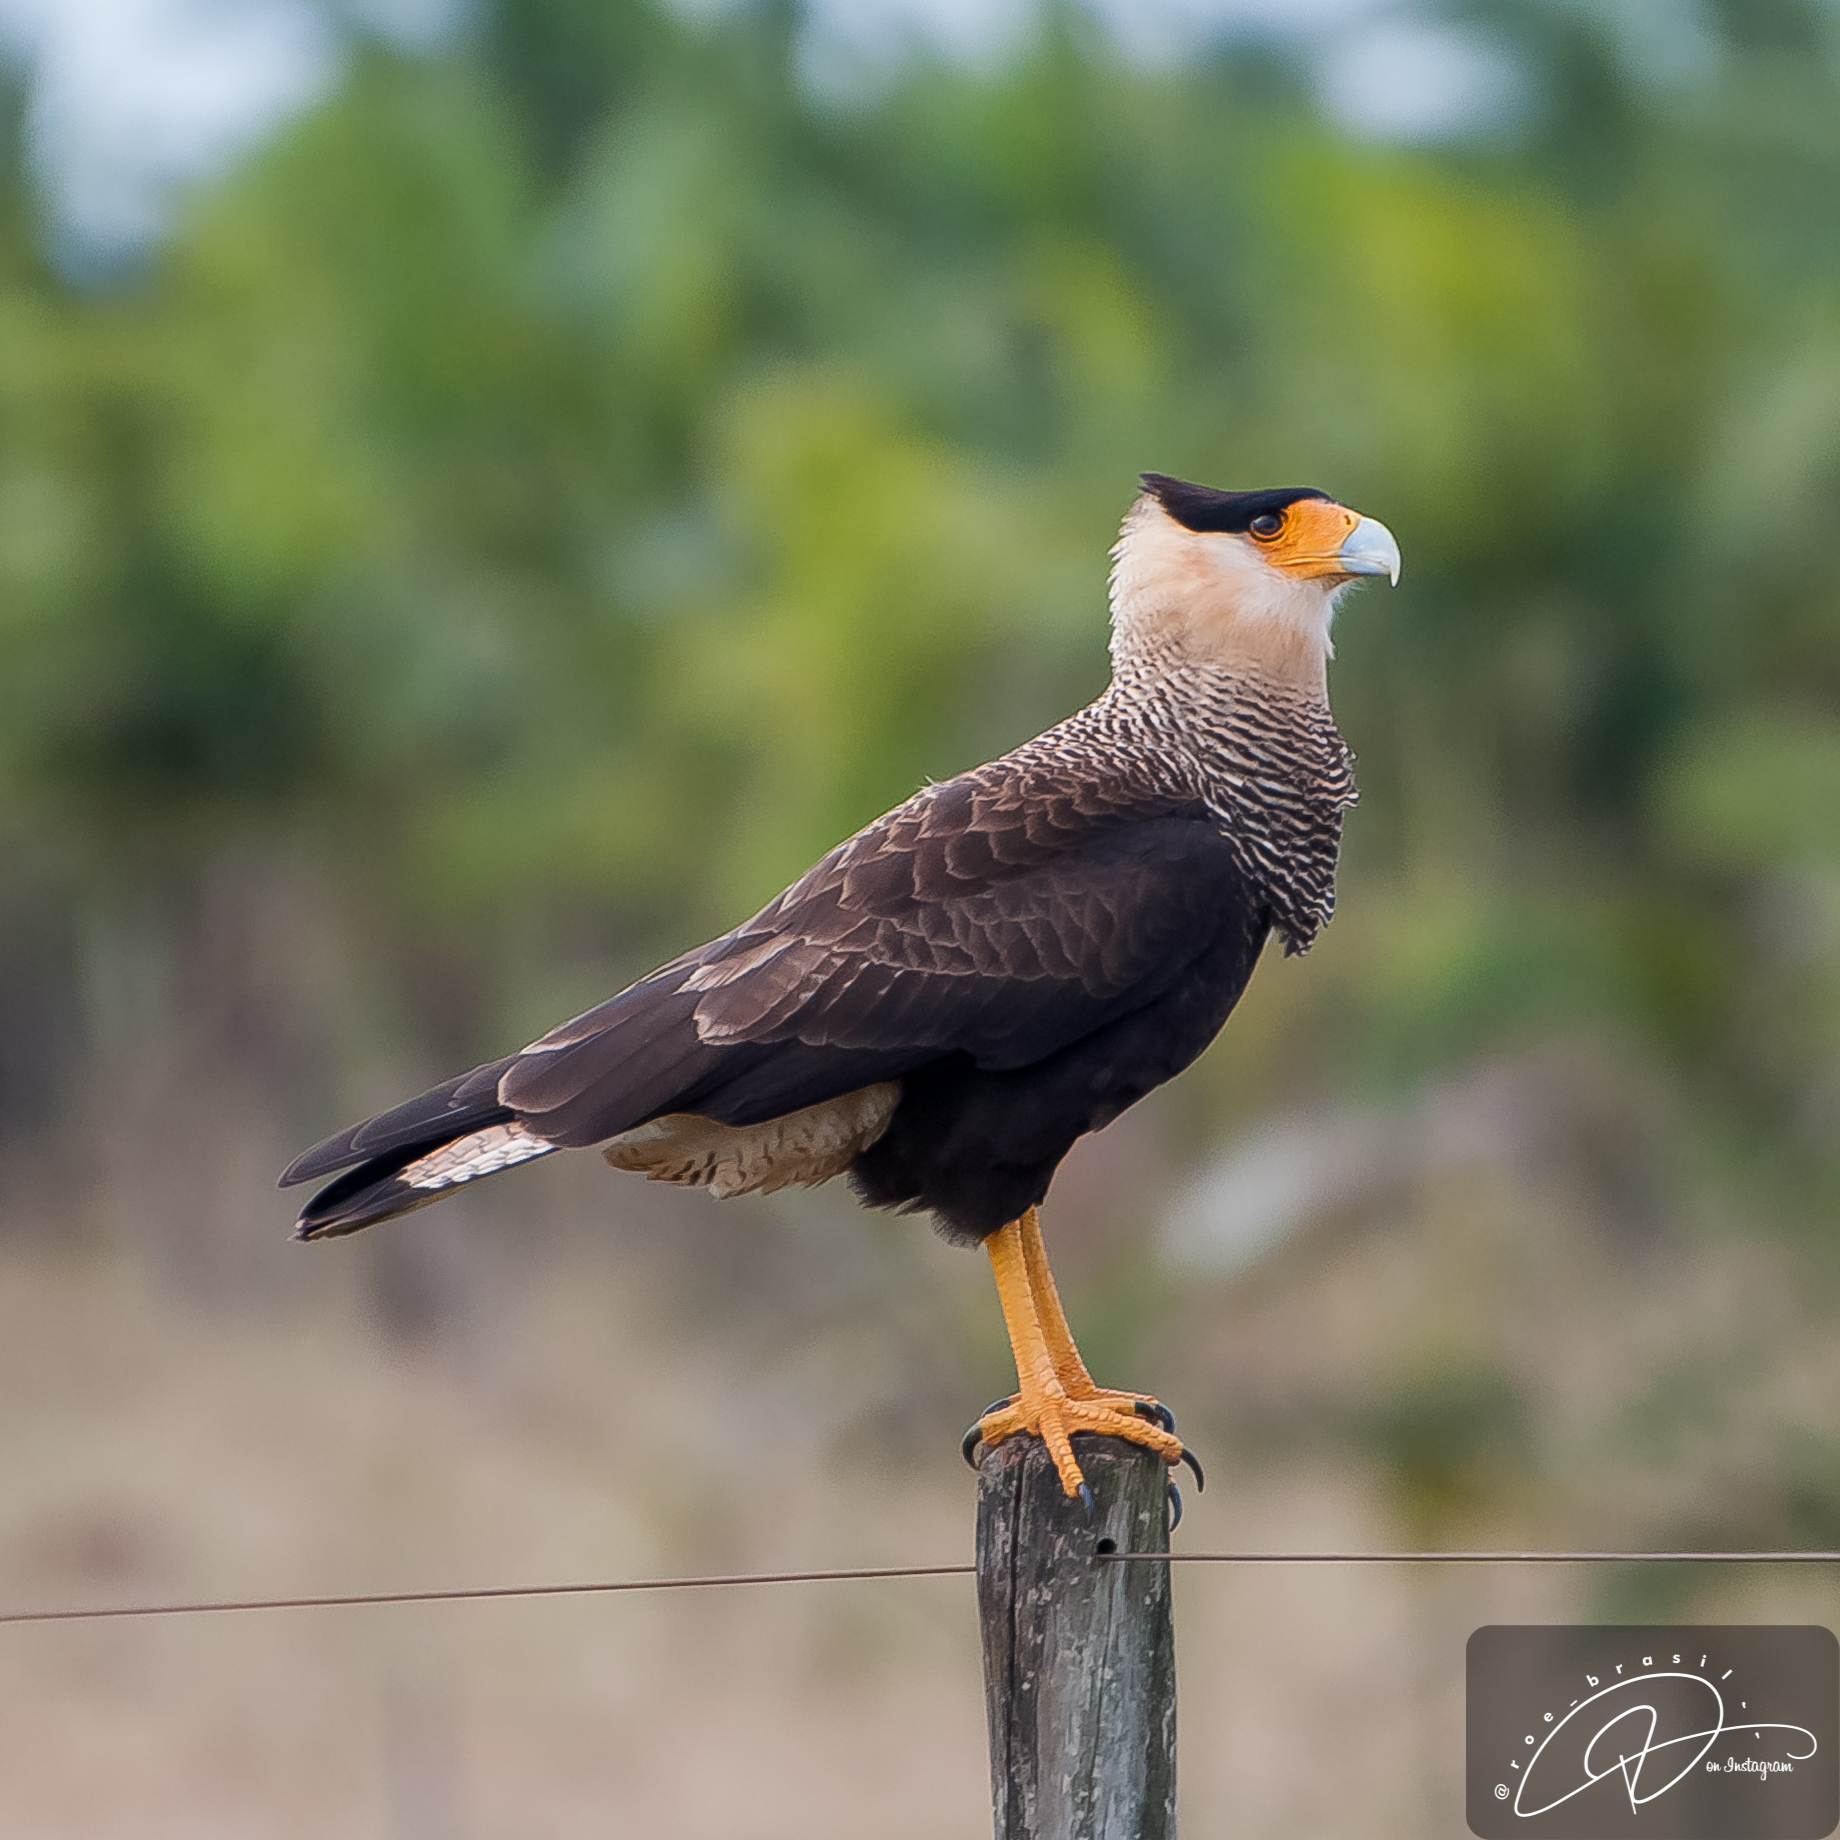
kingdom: Animalia
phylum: Chordata
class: Aves
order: Falconiformes
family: Falconidae
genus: Caracara
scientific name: Caracara plancus
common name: Southern caracara
